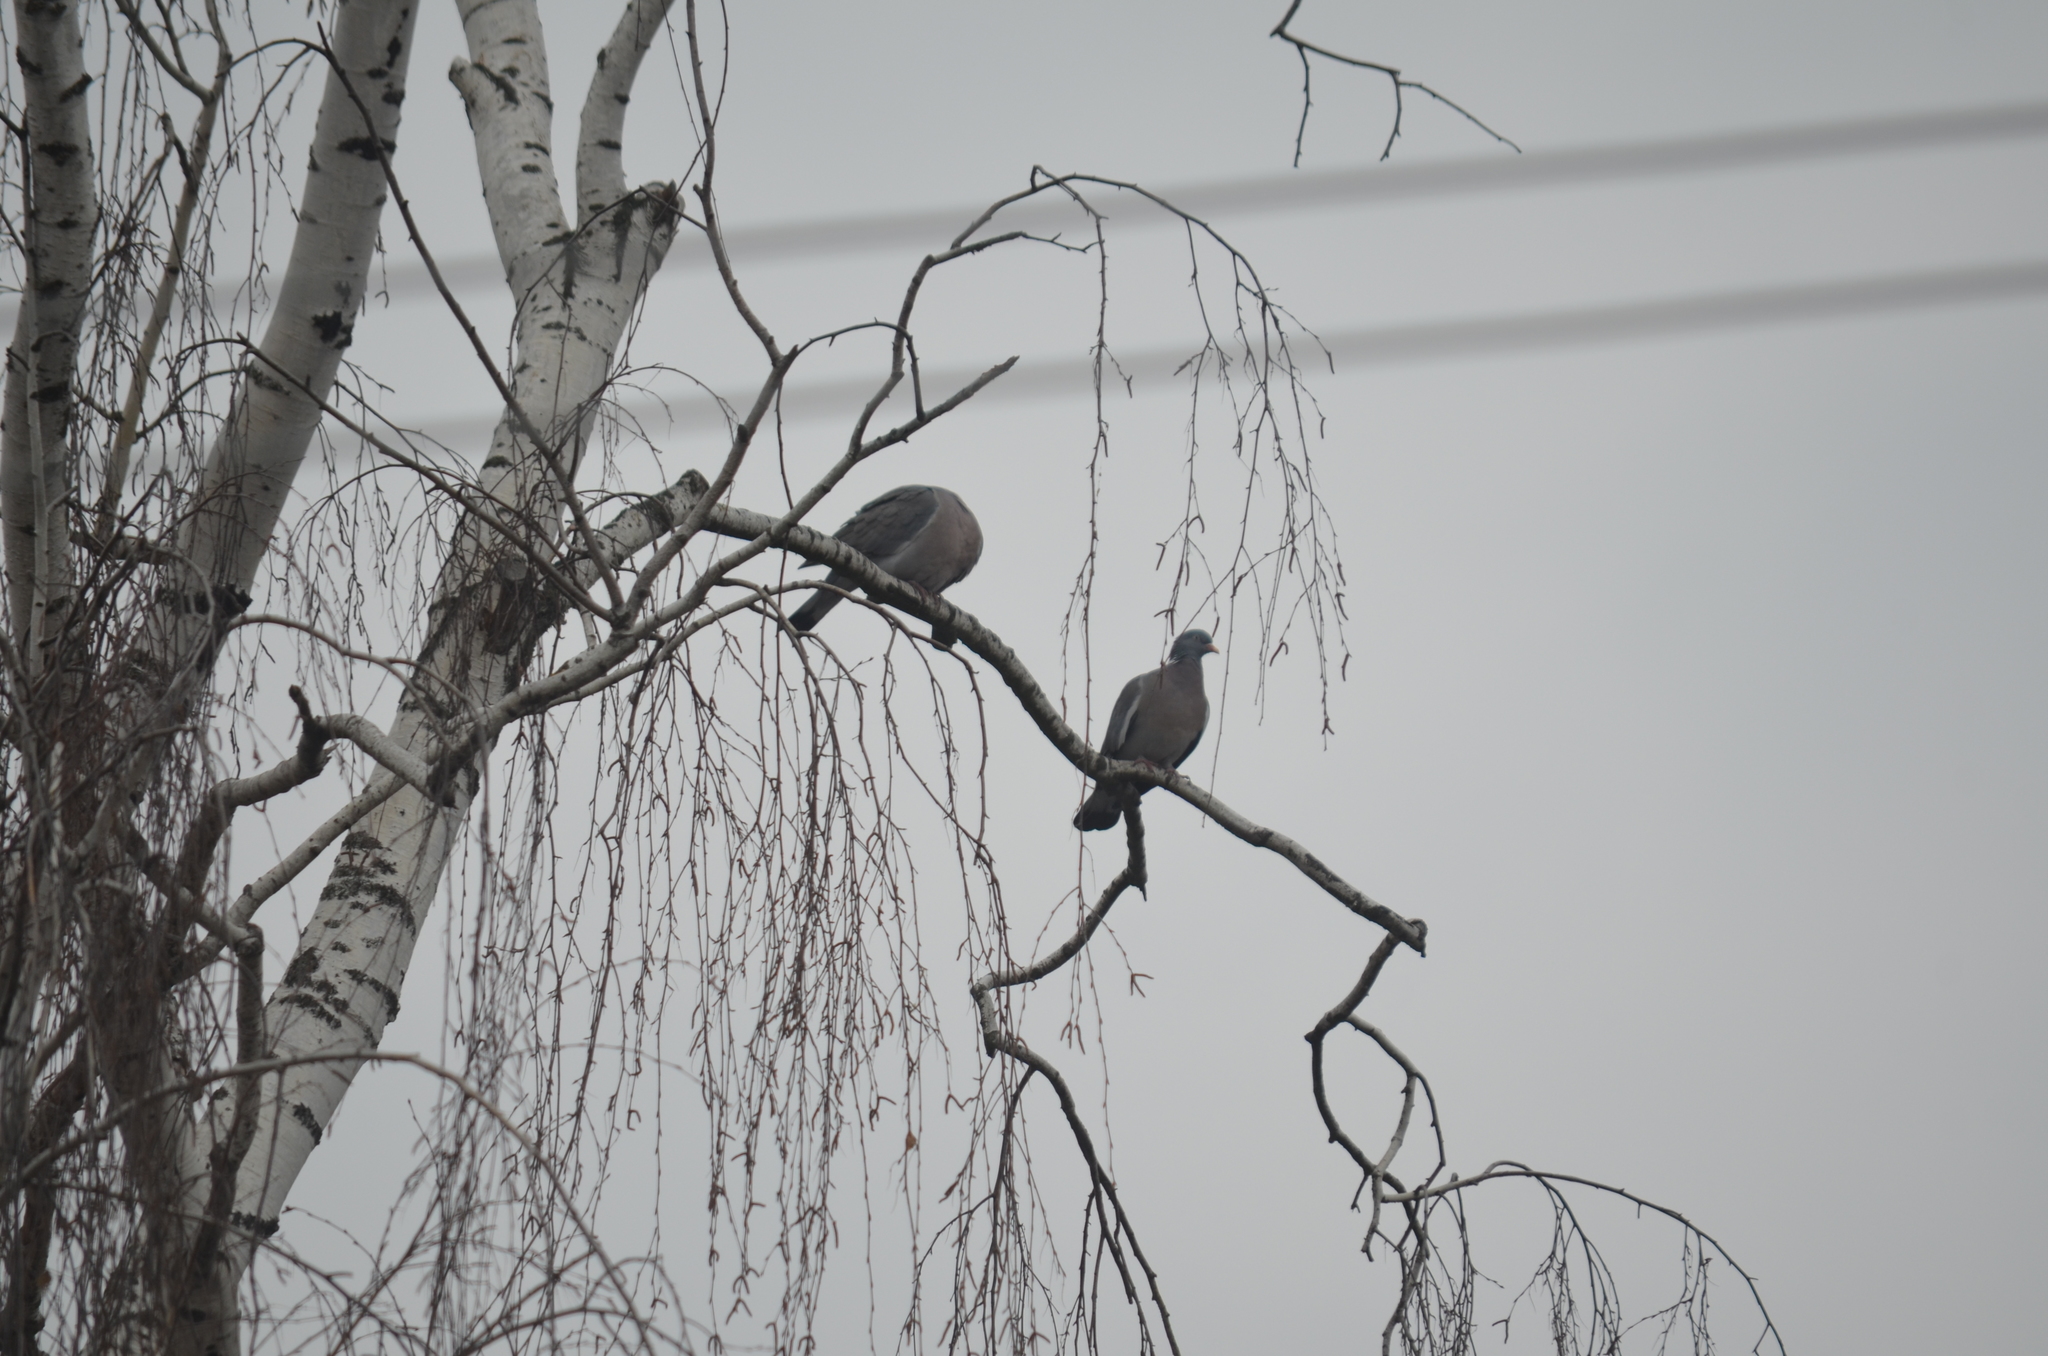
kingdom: Animalia
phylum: Chordata
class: Aves
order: Columbiformes
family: Columbidae
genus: Columba
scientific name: Columba palumbus
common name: Common wood pigeon
